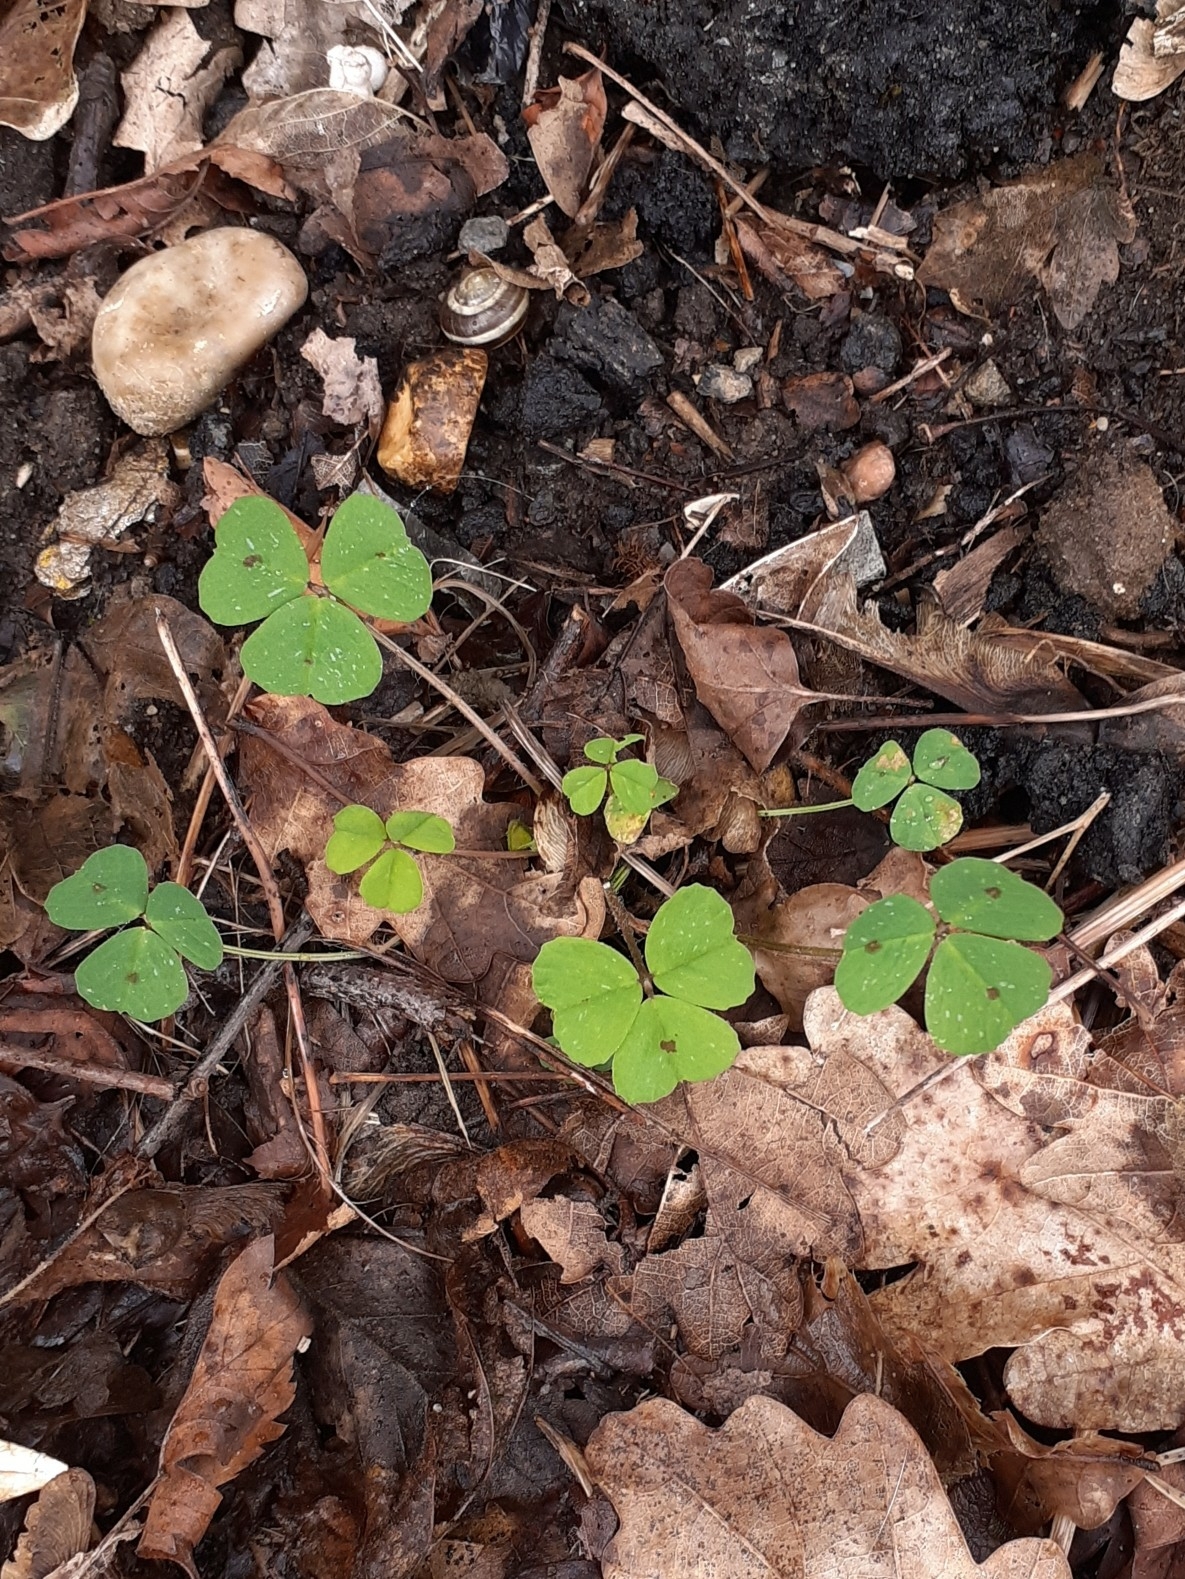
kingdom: Plantae
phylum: Tracheophyta
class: Magnoliopsida
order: Fabales
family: Fabaceae
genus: Medicago
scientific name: Medicago arabica
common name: Spotted medick
